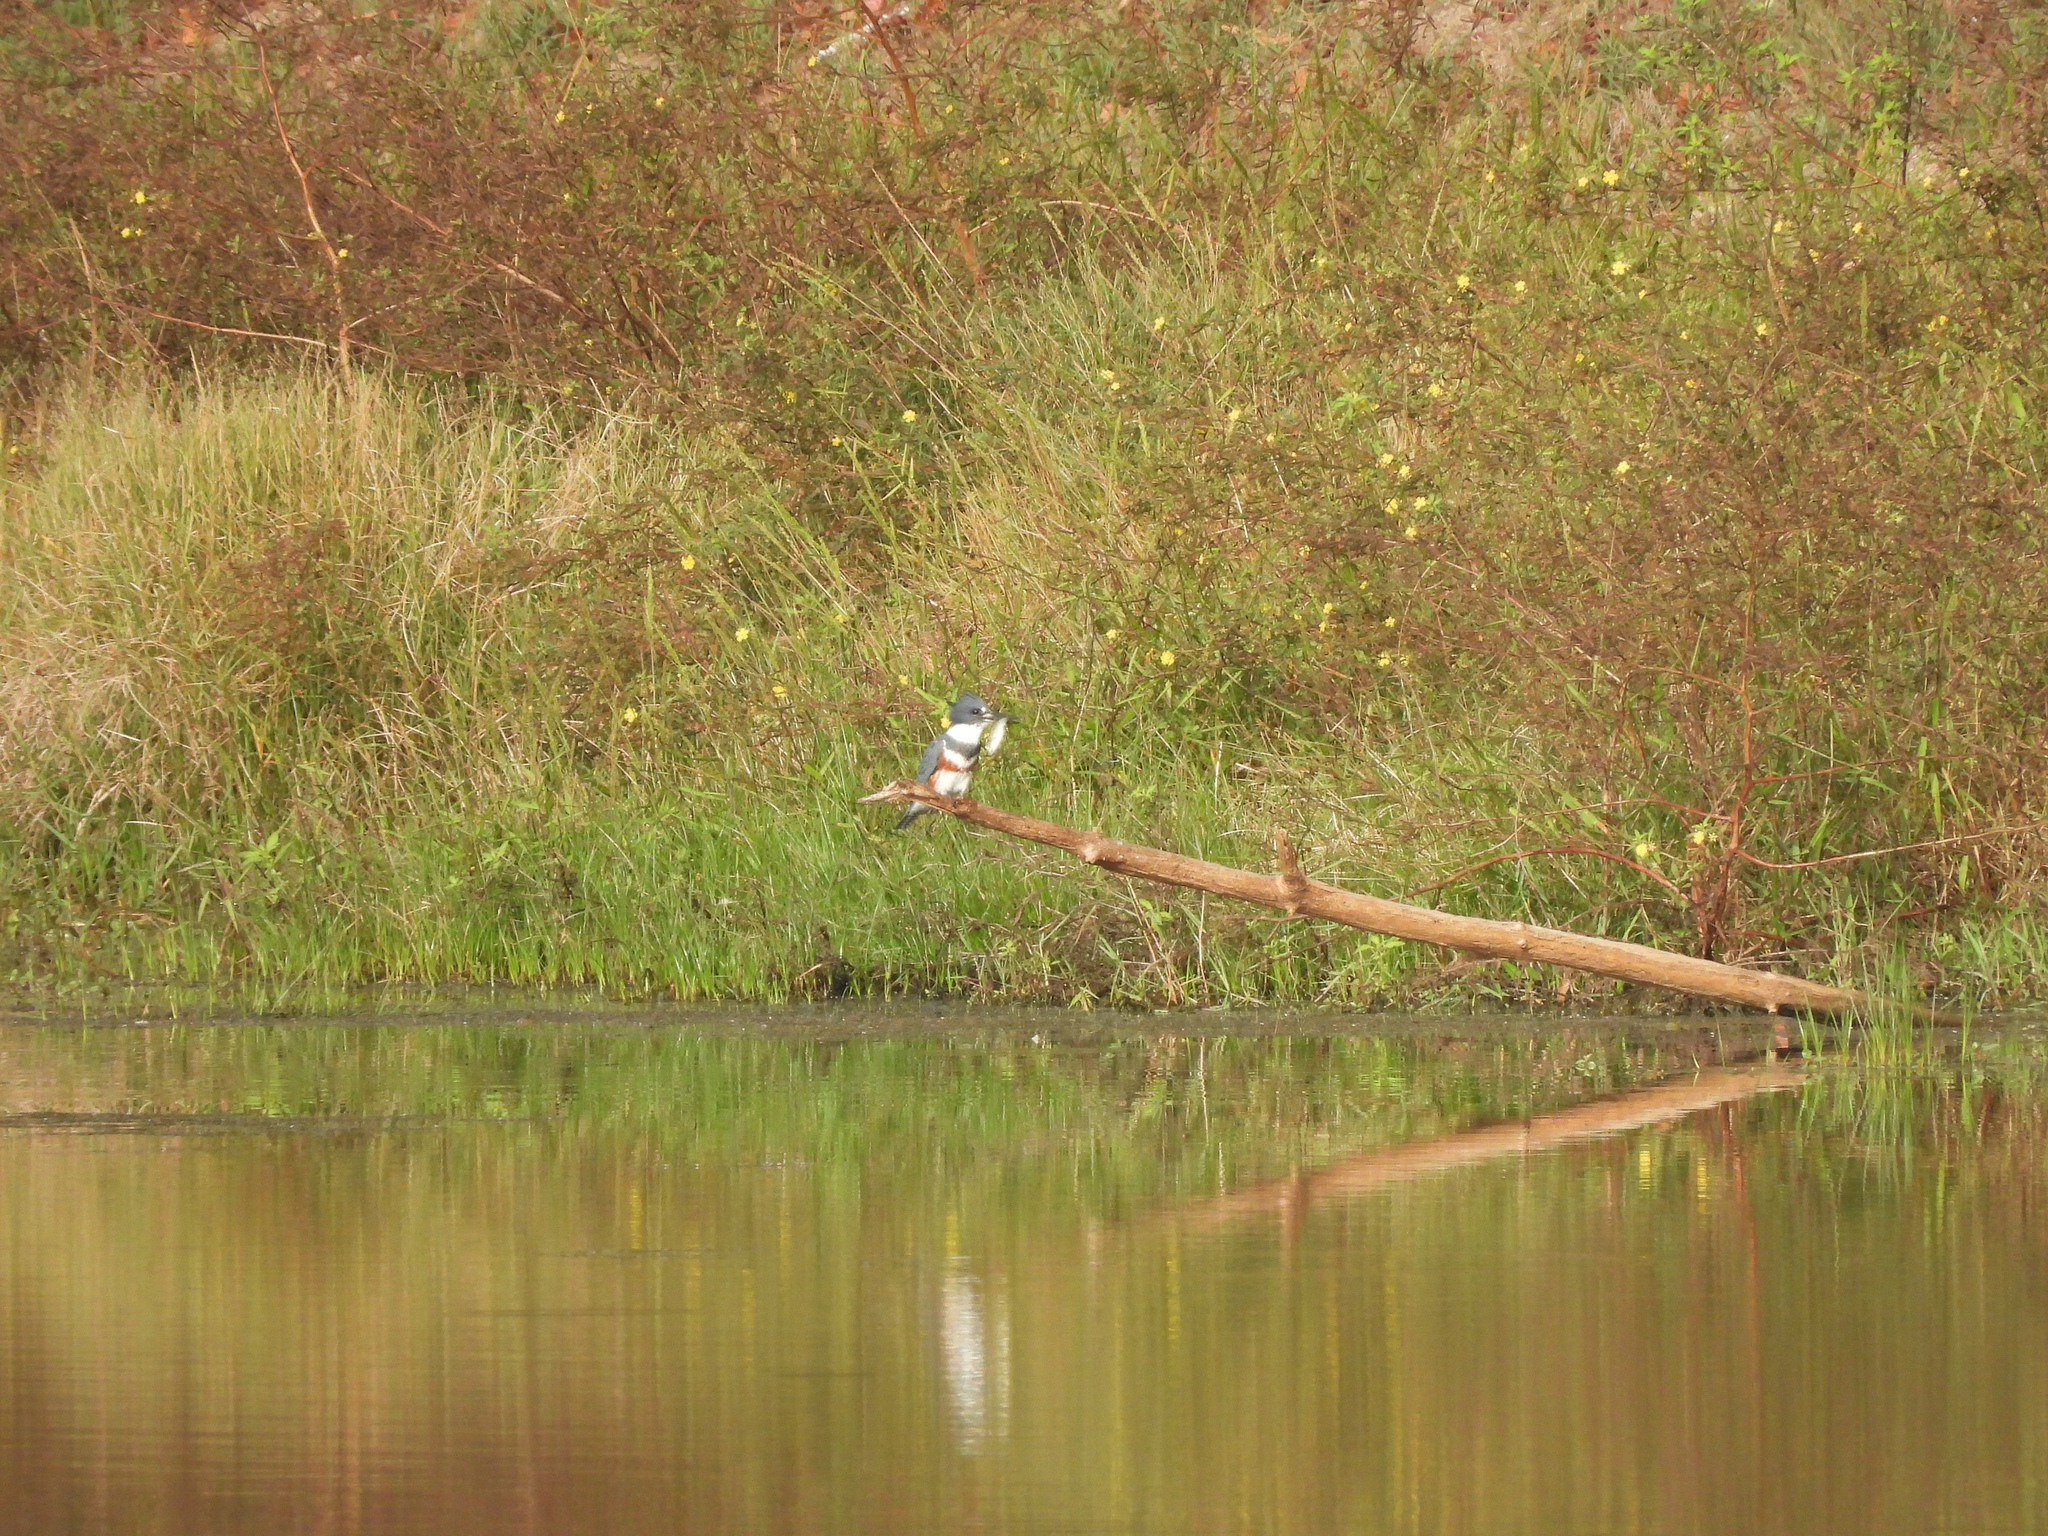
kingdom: Animalia
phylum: Chordata
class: Aves
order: Coraciiformes
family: Alcedinidae
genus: Megaceryle
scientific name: Megaceryle alcyon
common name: Belted kingfisher
